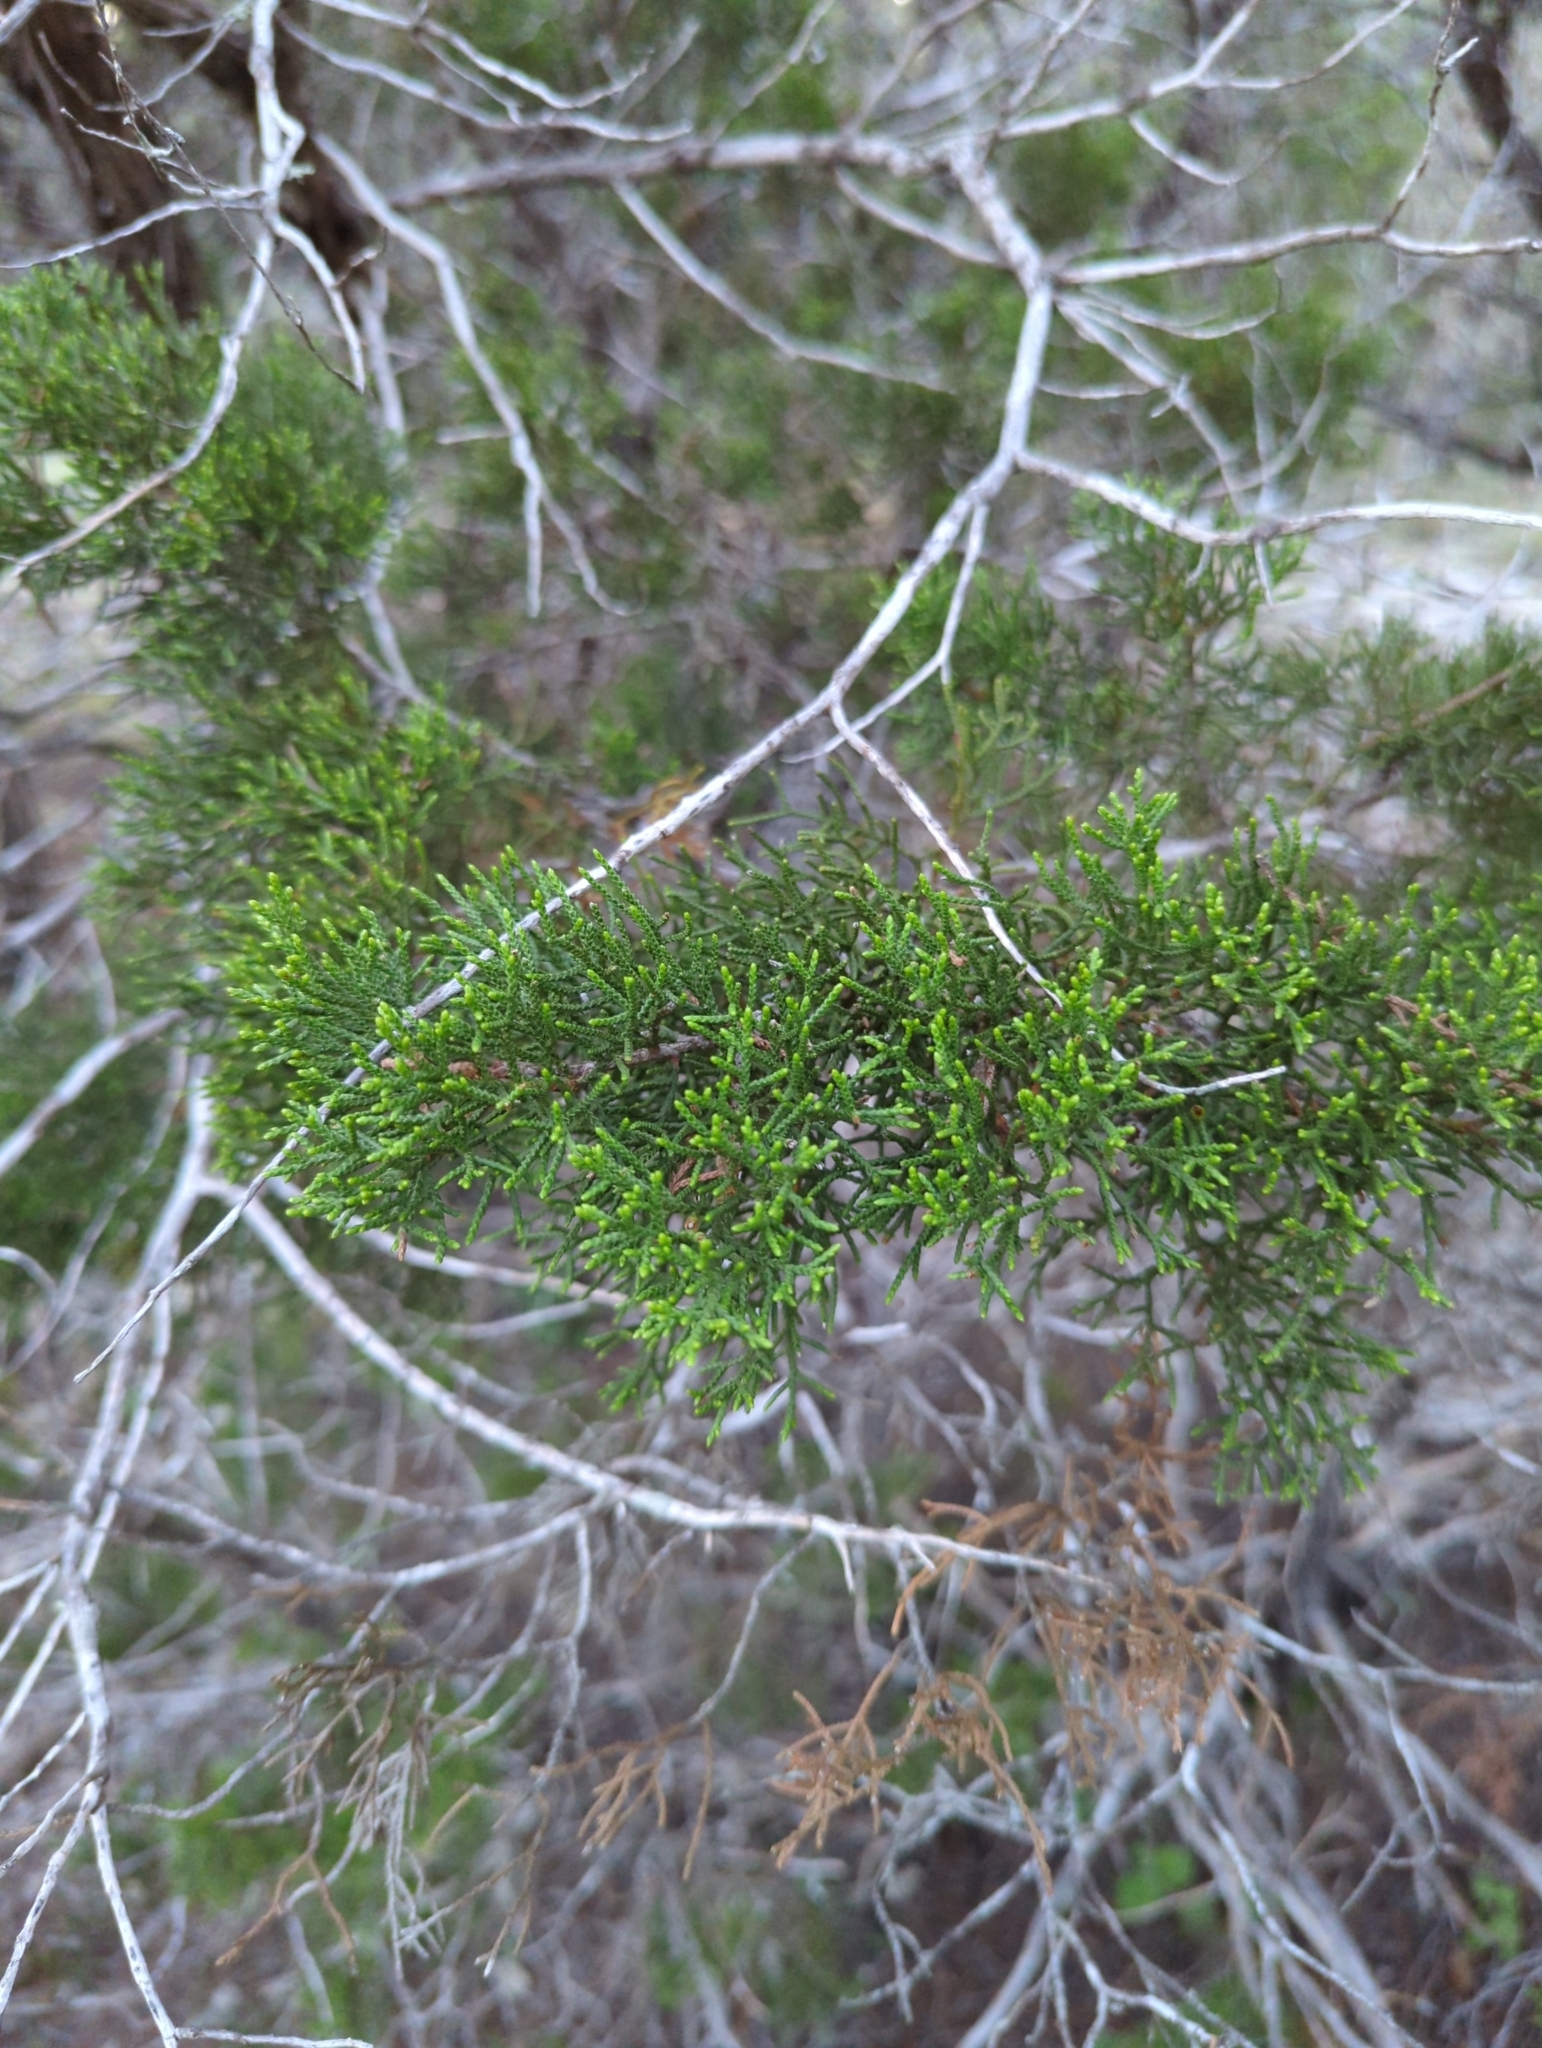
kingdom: Plantae
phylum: Tracheophyta
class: Pinopsida
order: Pinales
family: Cupressaceae
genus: Juniperus
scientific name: Juniperus ashei
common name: Mexican juniper
